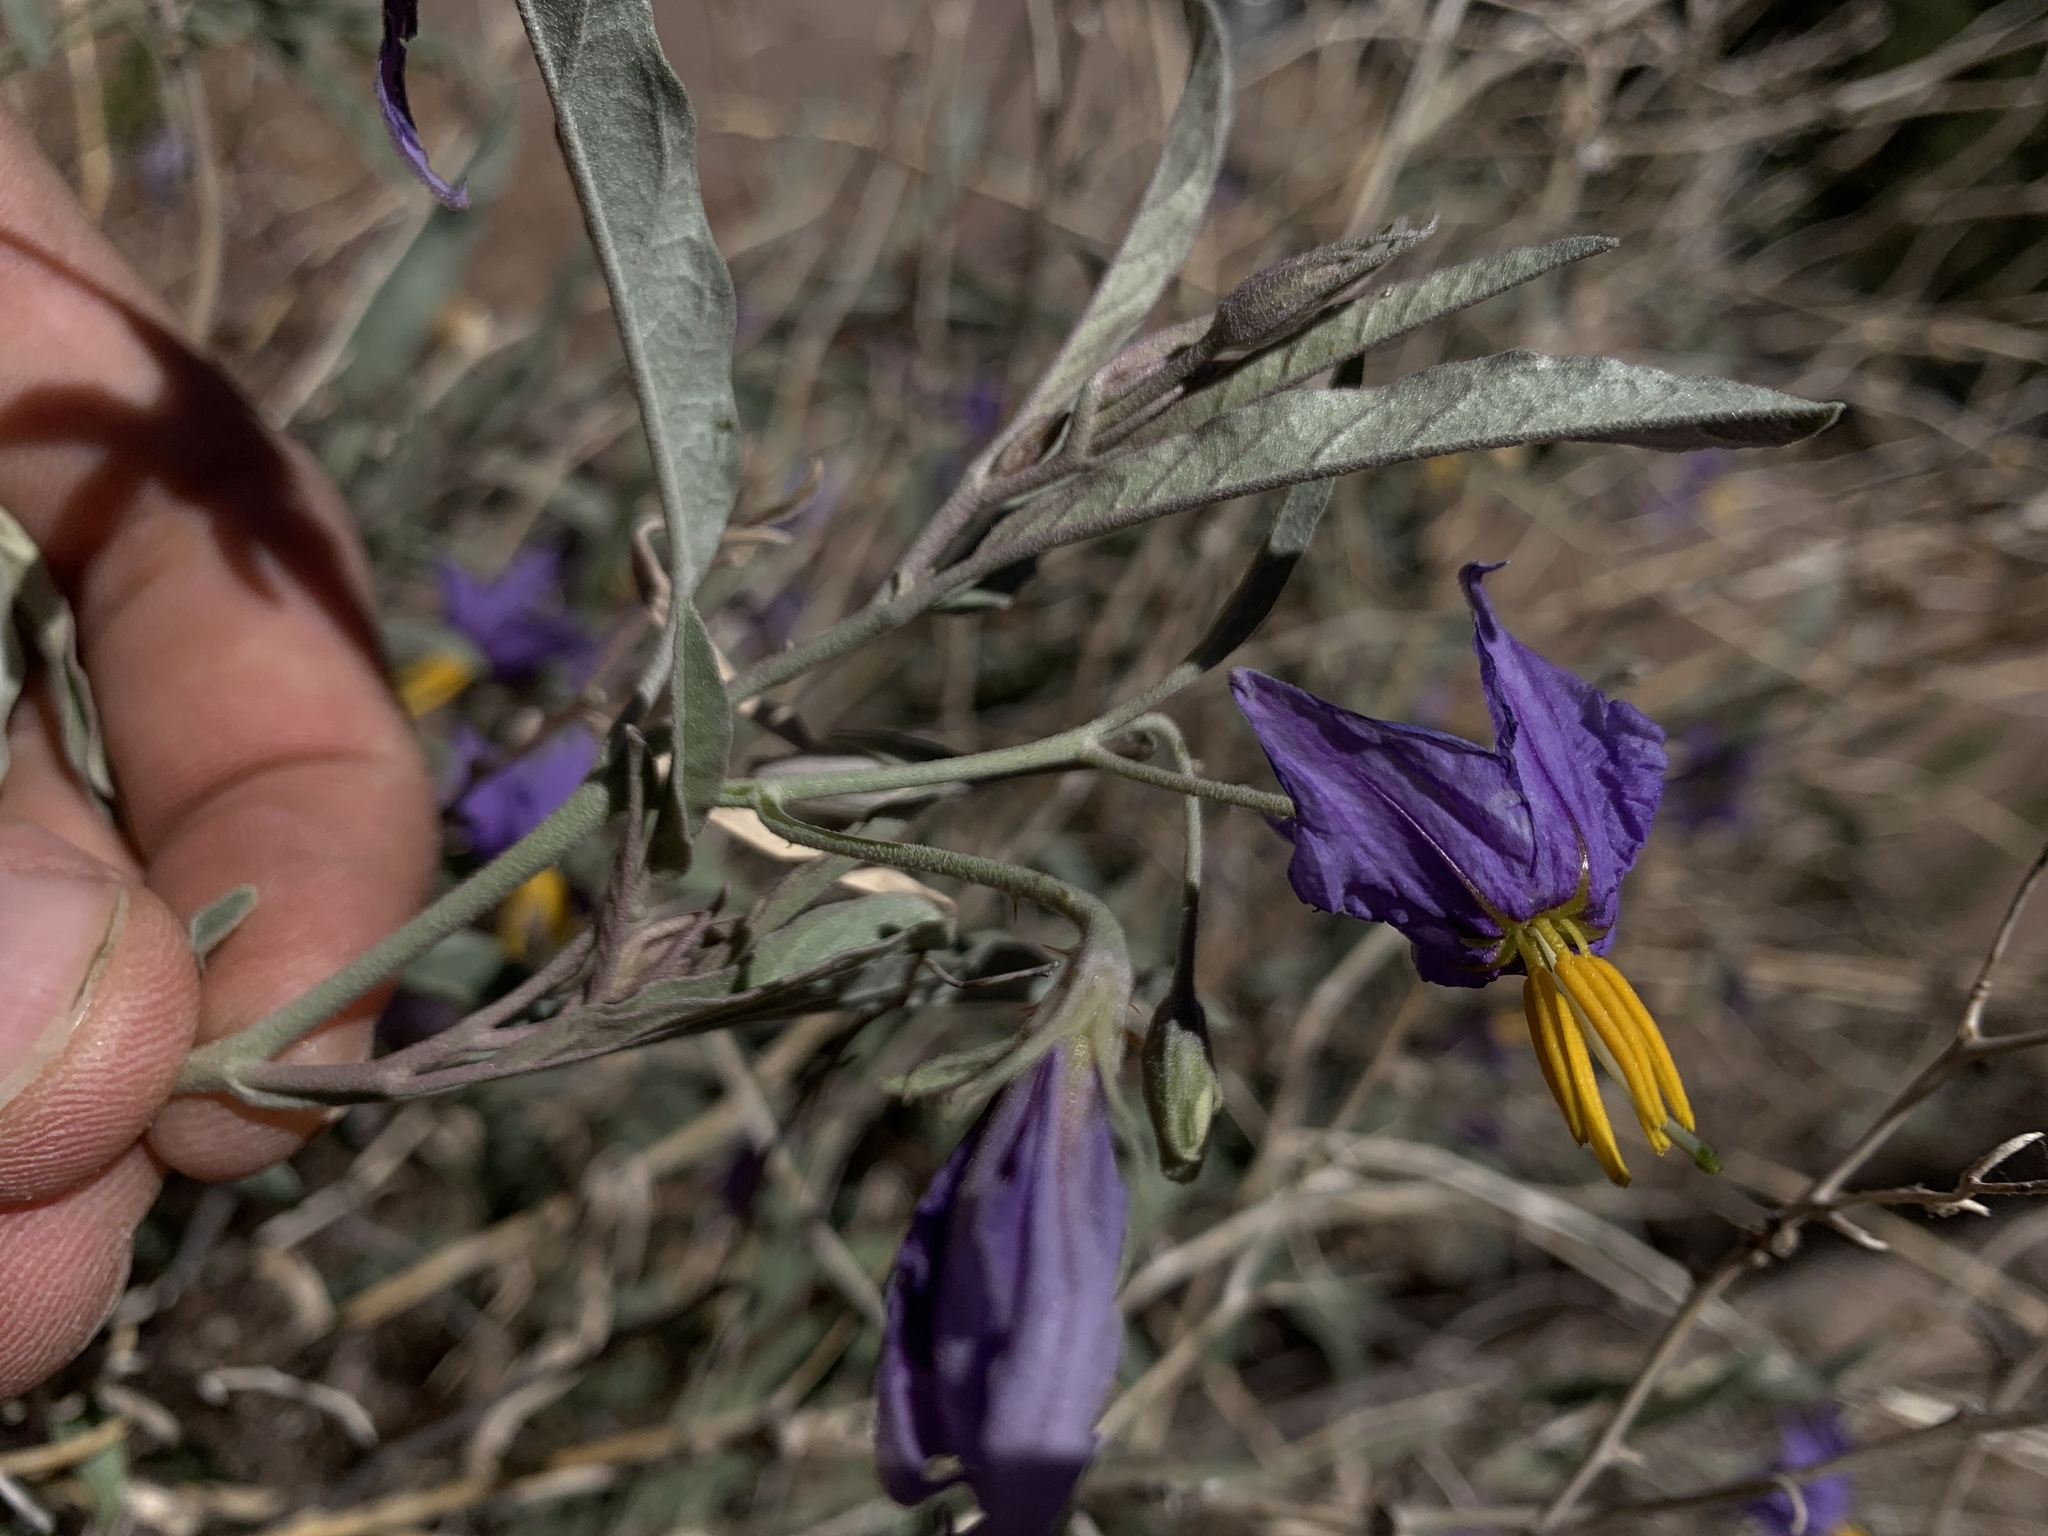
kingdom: Plantae
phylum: Tracheophyta
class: Magnoliopsida
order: Solanales
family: Solanaceae
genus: Solanum
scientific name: Solanum elaeagnifolium
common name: Silverleaf nightshade
